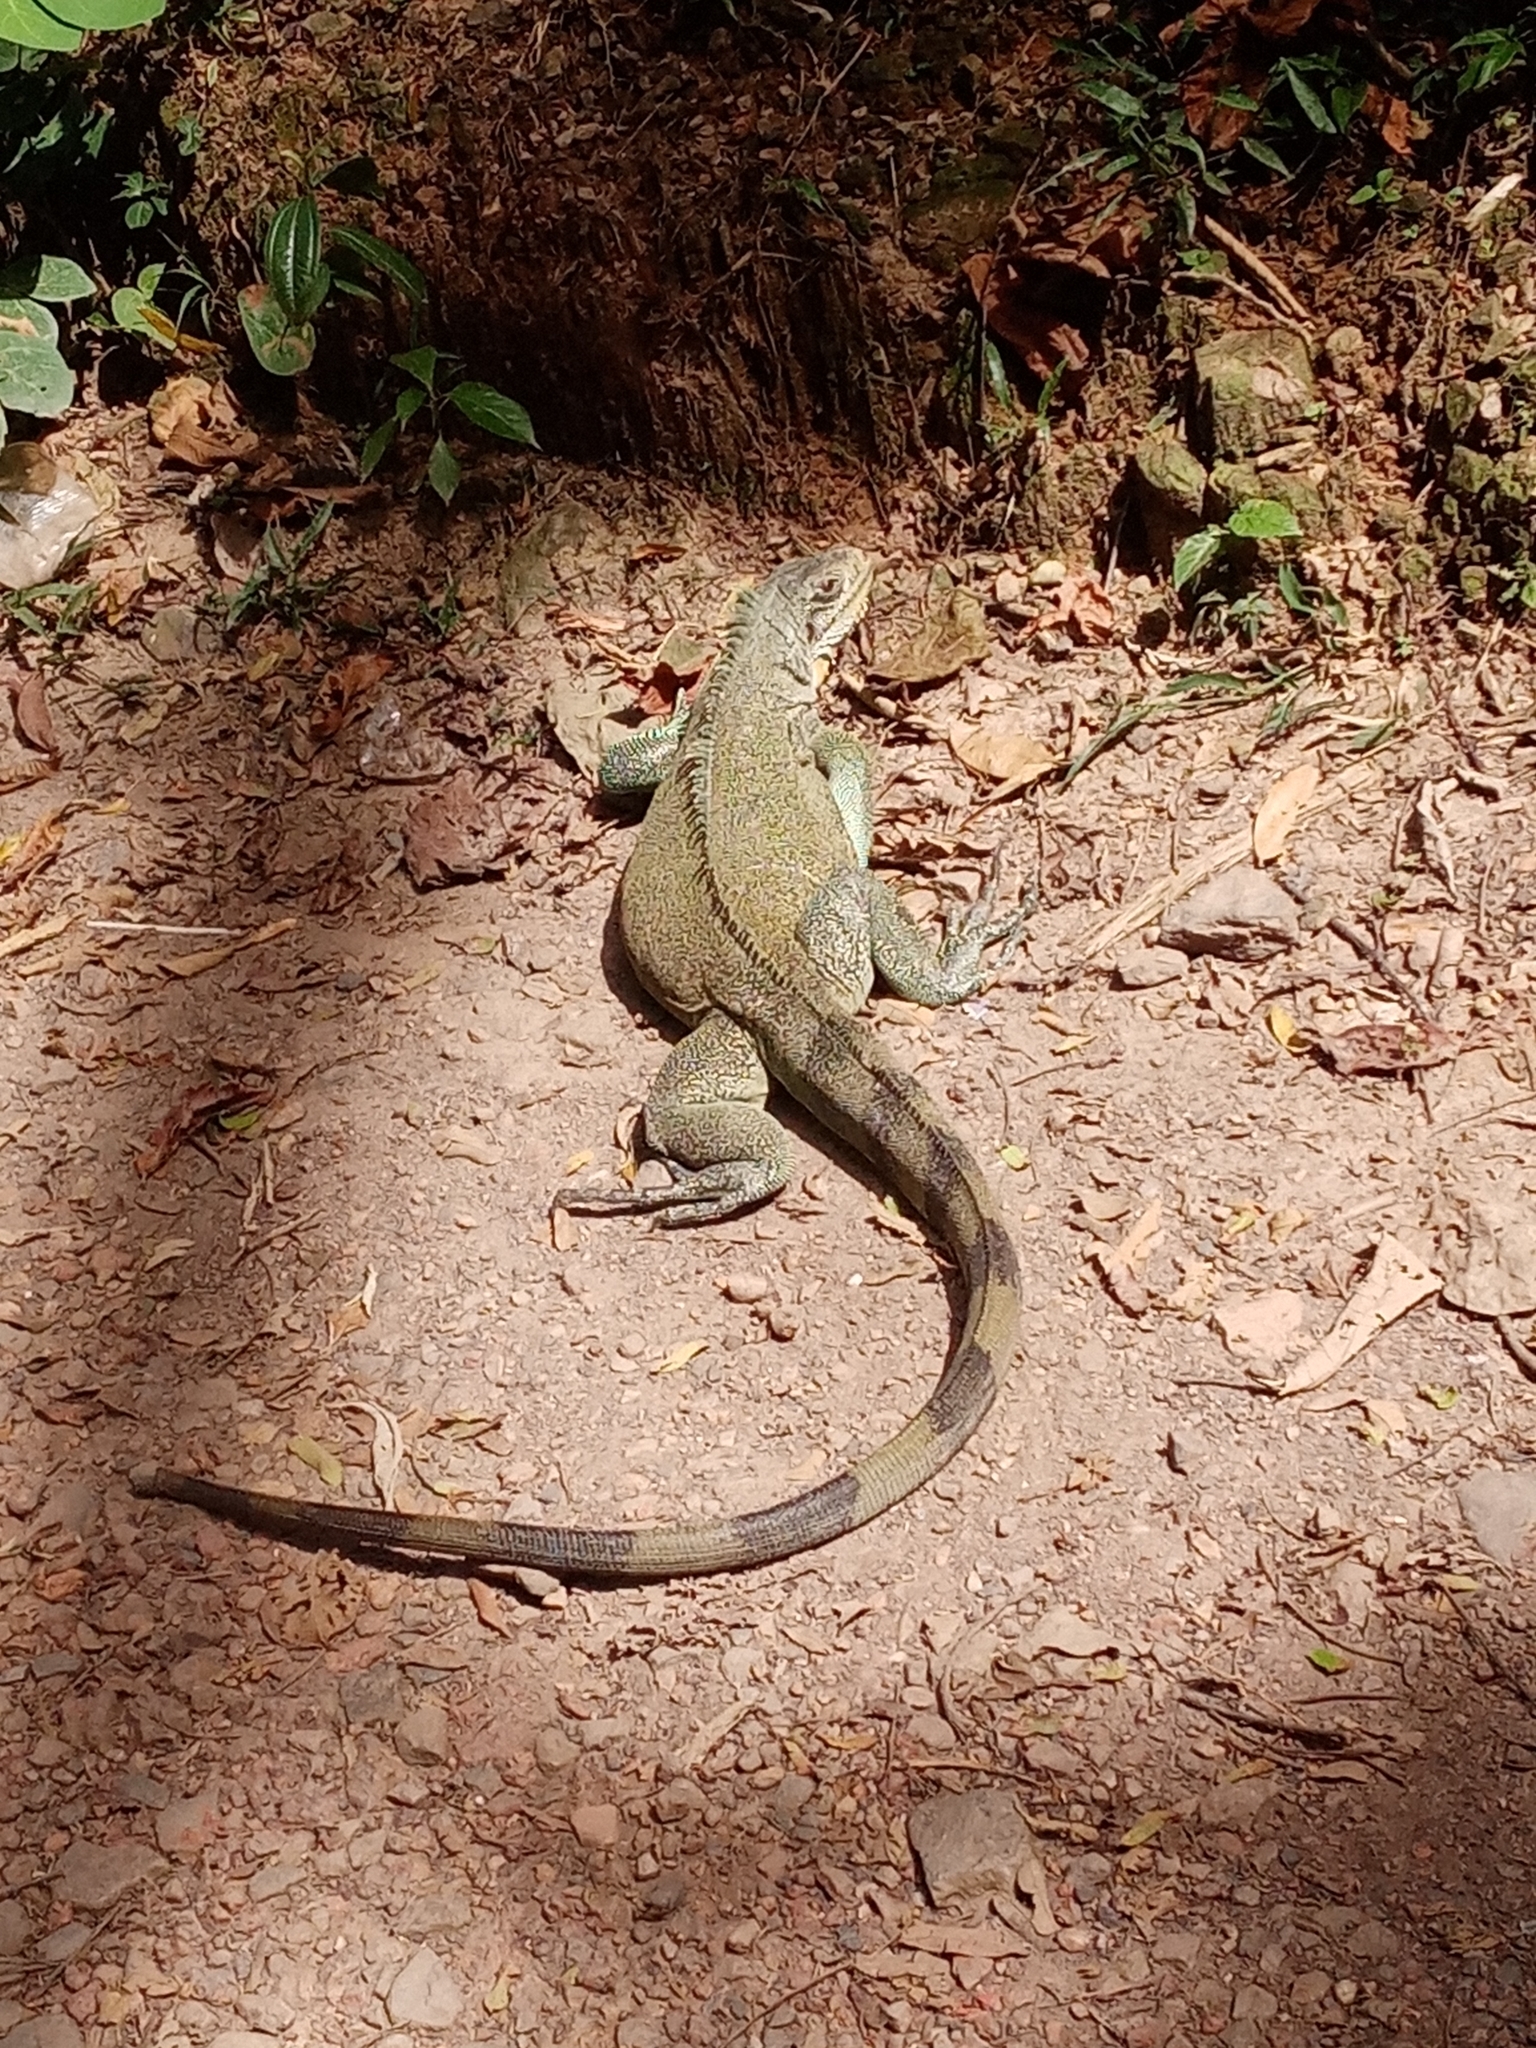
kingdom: Animalia
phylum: Chordata
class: Squamata
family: Iguanidae
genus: Iguana
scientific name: Iguana iguana
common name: Green iguana
